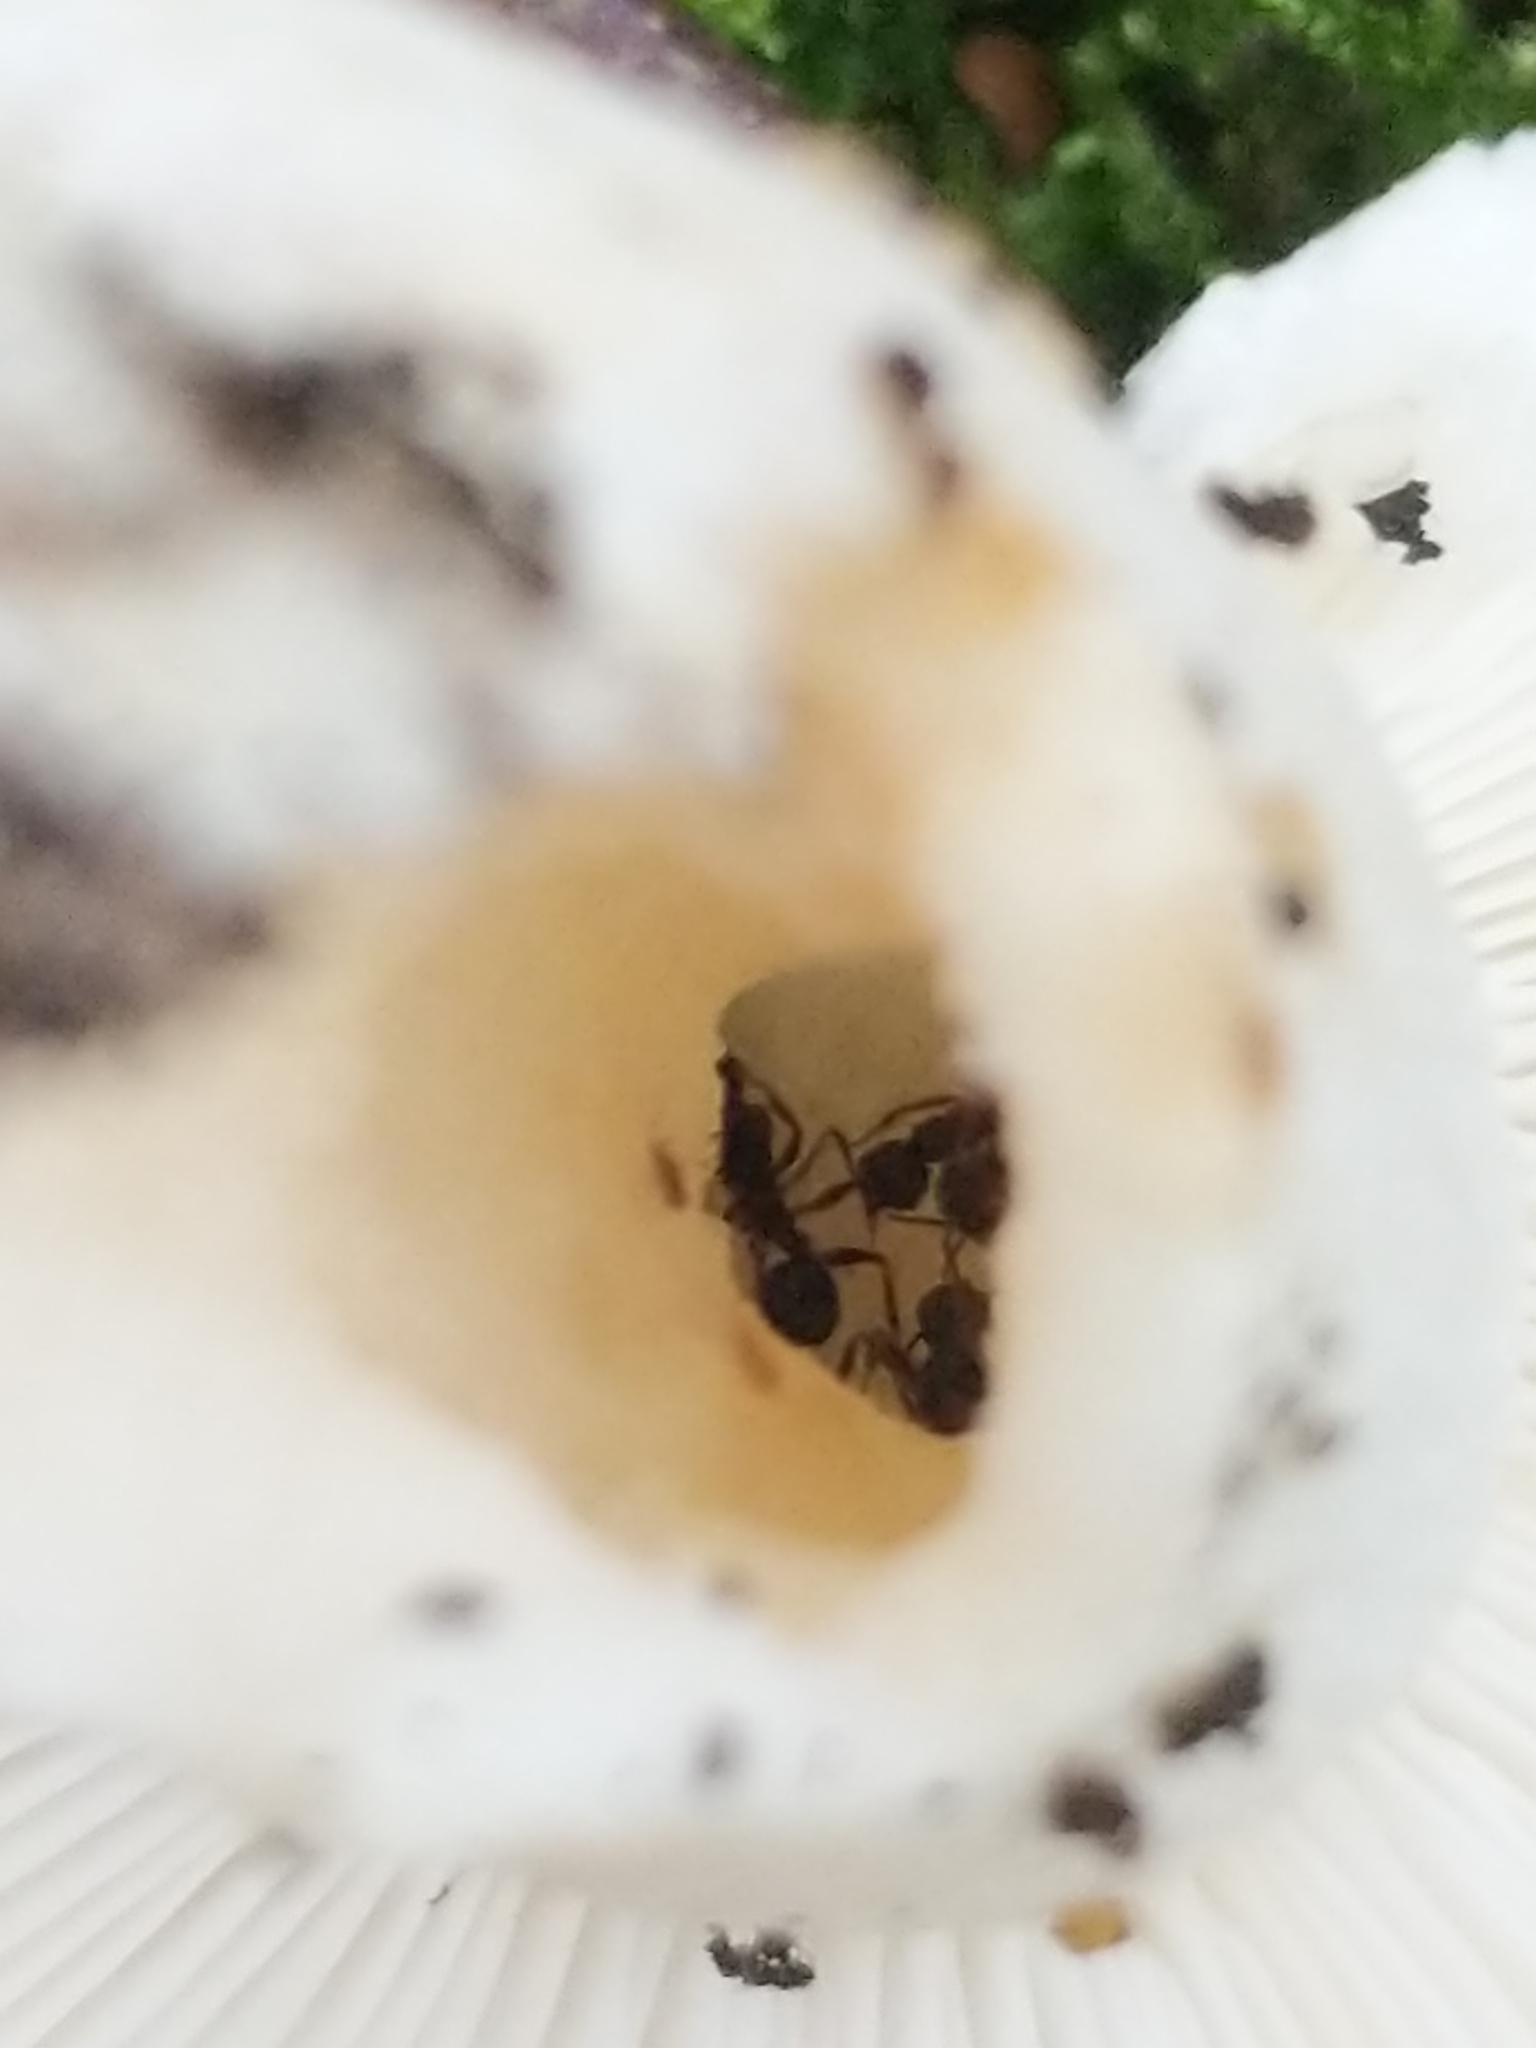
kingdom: Animalia
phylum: Arthropoda
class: Insecta
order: Hymenoptera
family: Formicidae
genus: Aphaenogaster
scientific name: Aphaenogaster picea
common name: Pitch-black collared ant
